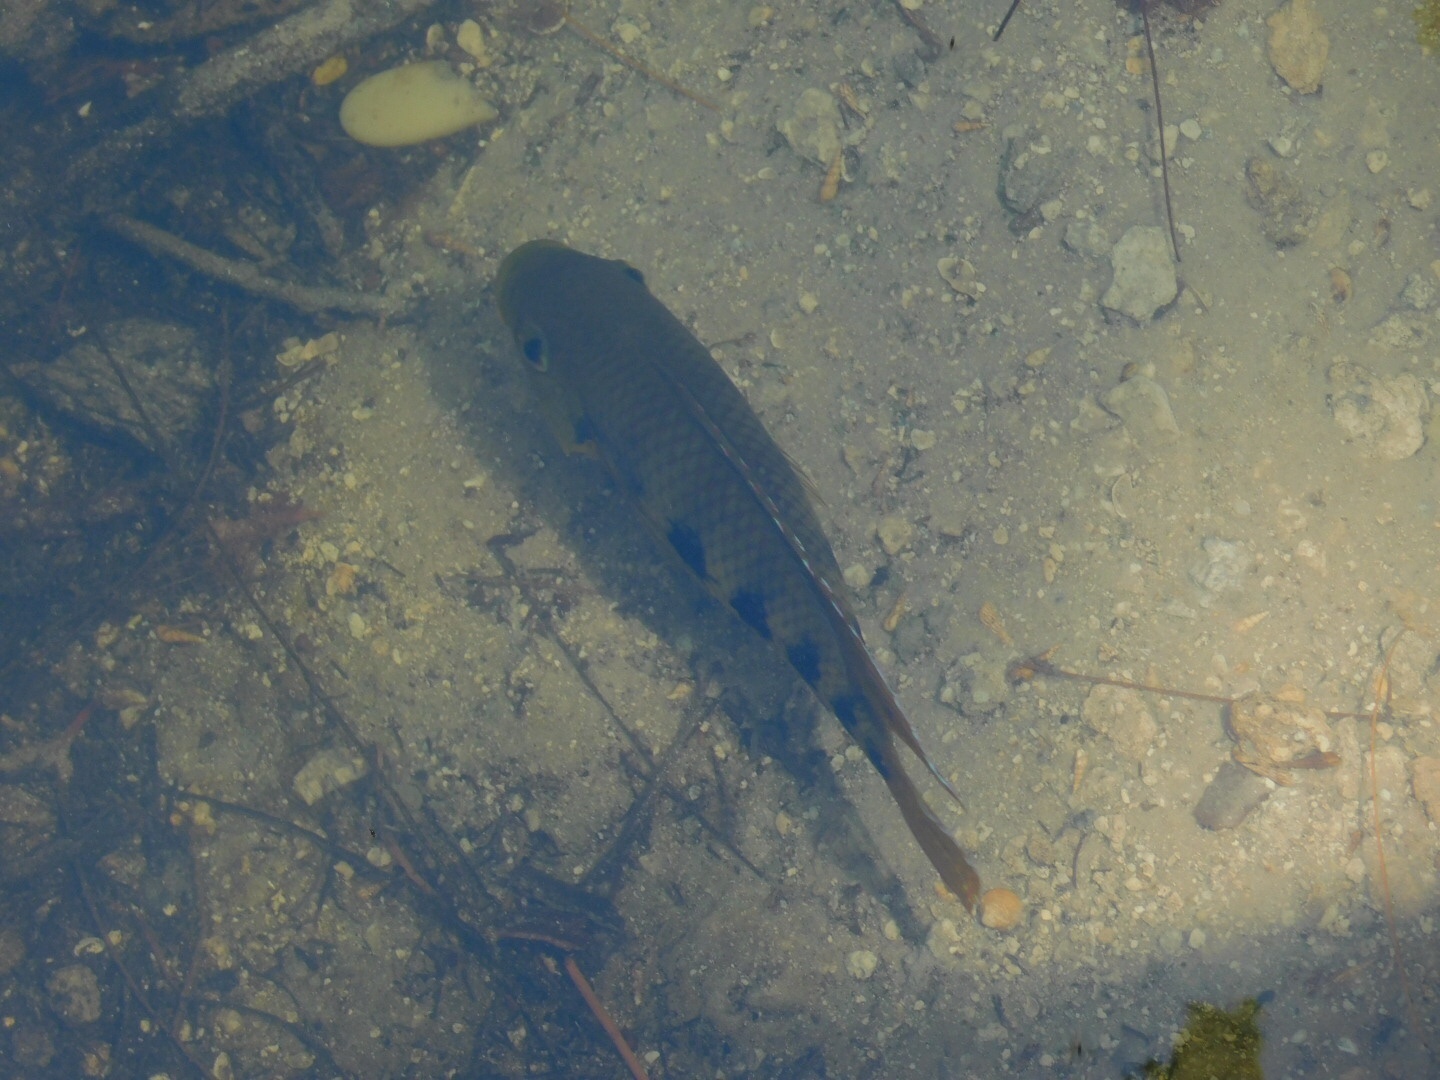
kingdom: Animalia
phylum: Chordata
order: Perciformes
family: Cichlidae
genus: Pelmatolapia
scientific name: Pelmatolapia mariae
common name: Spotted tilapia
